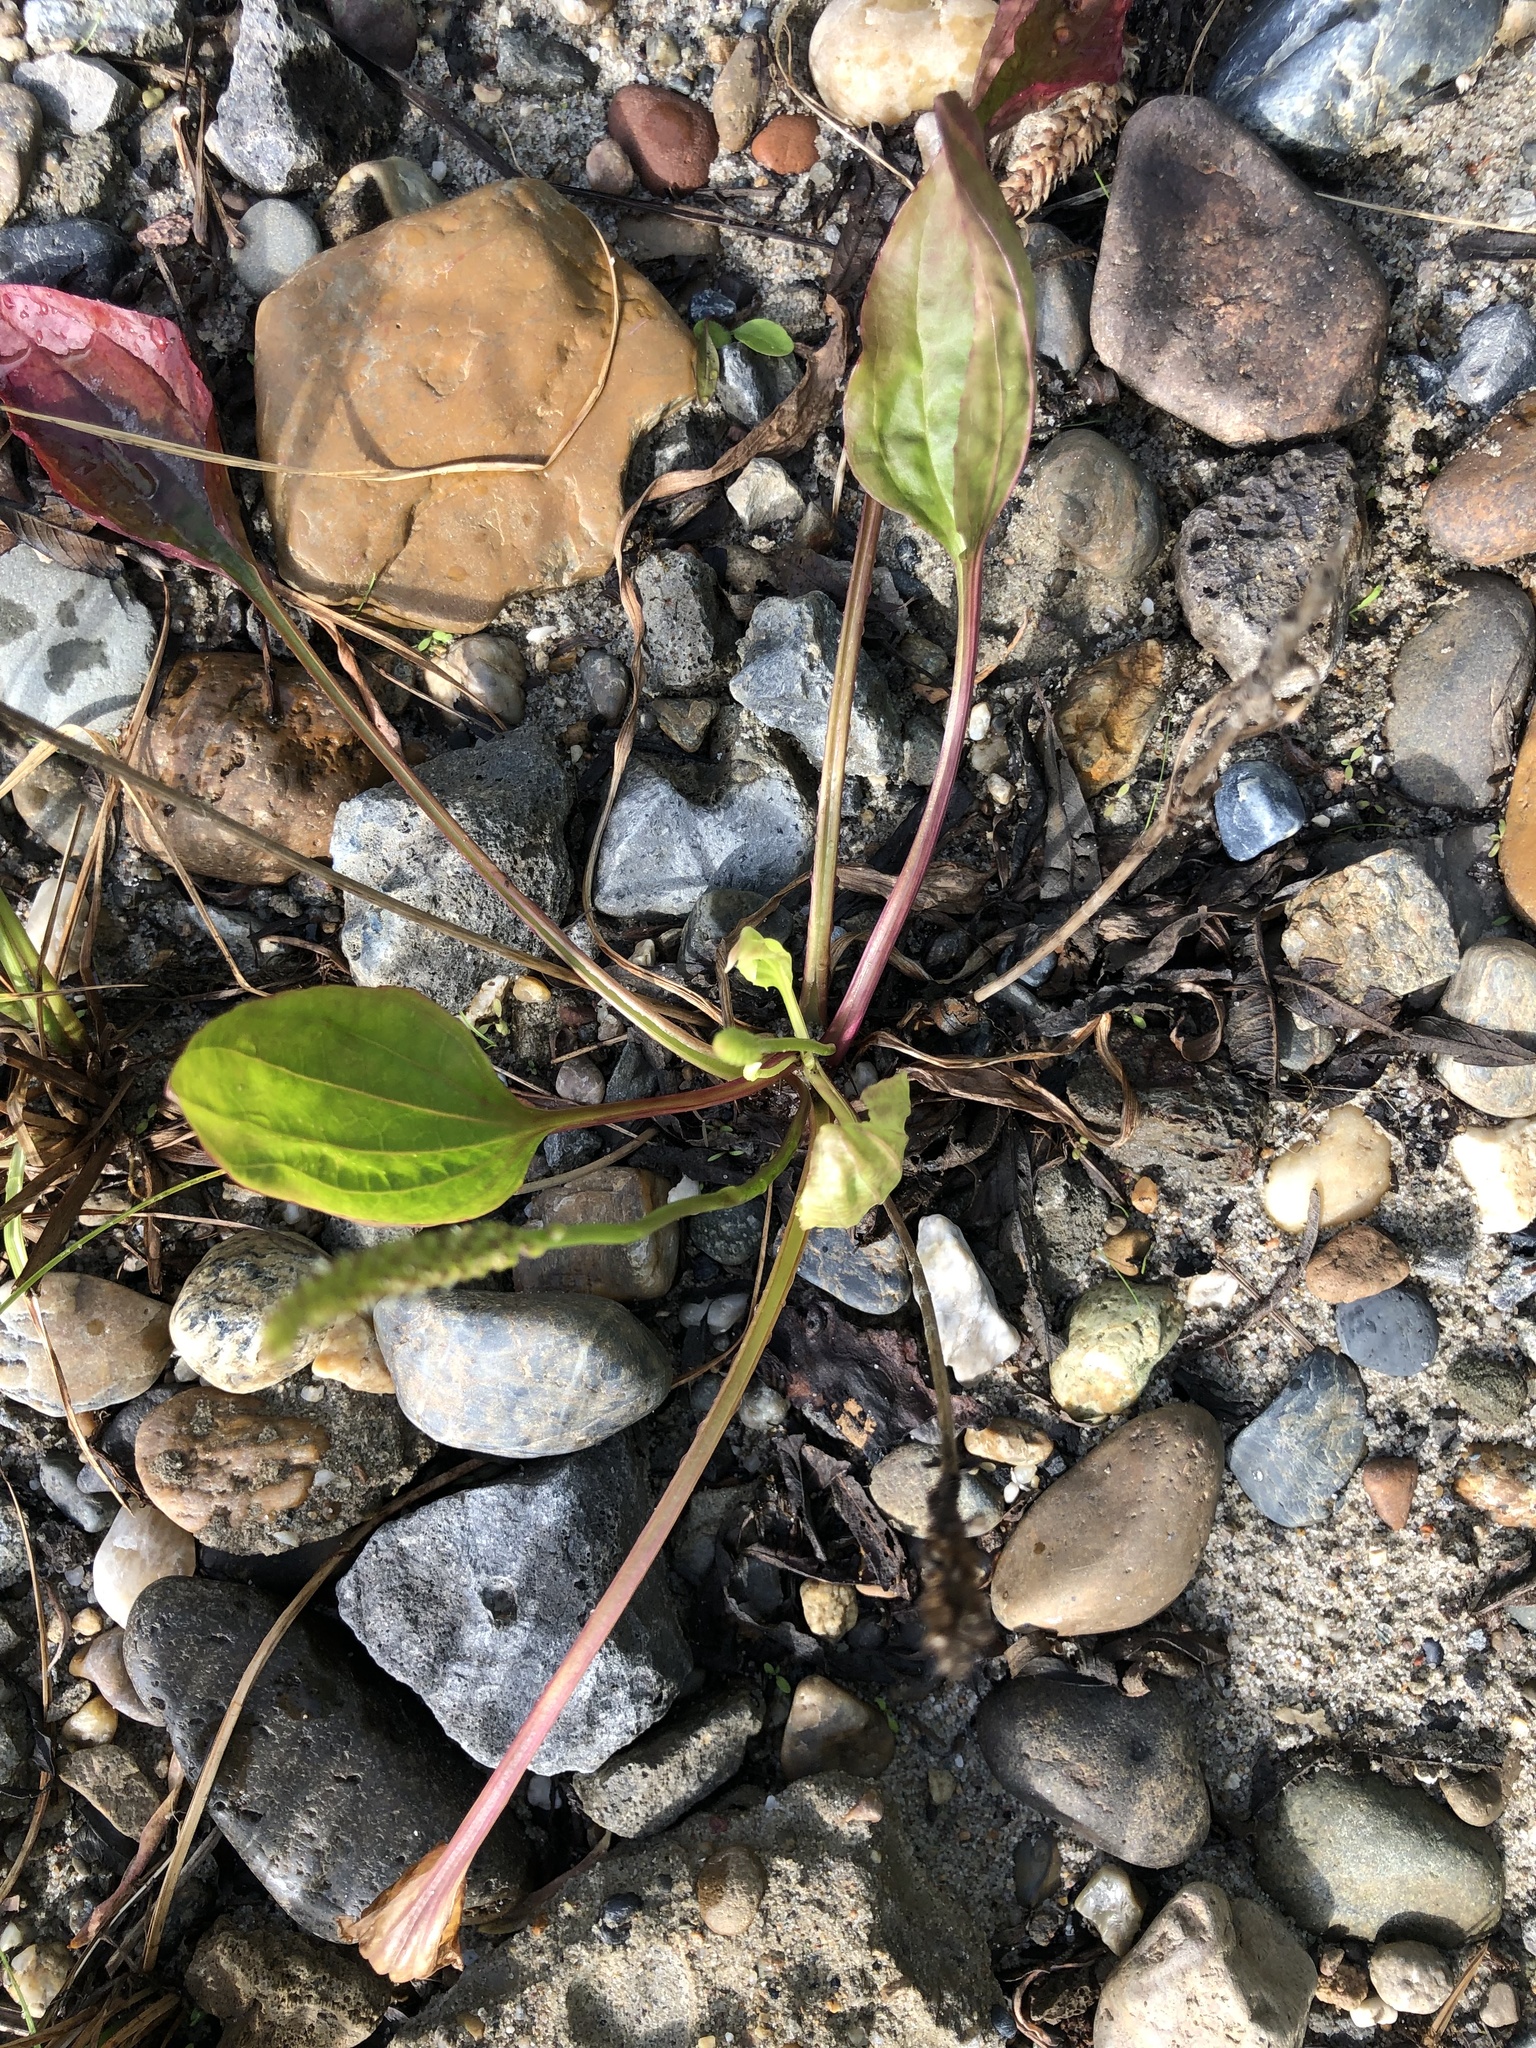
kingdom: Plantae
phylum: Tracheophyta
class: Magnoliopsida
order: Lamiales
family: Plantaginaceae
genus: Plantago
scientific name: Plantago major
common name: Common plantain
